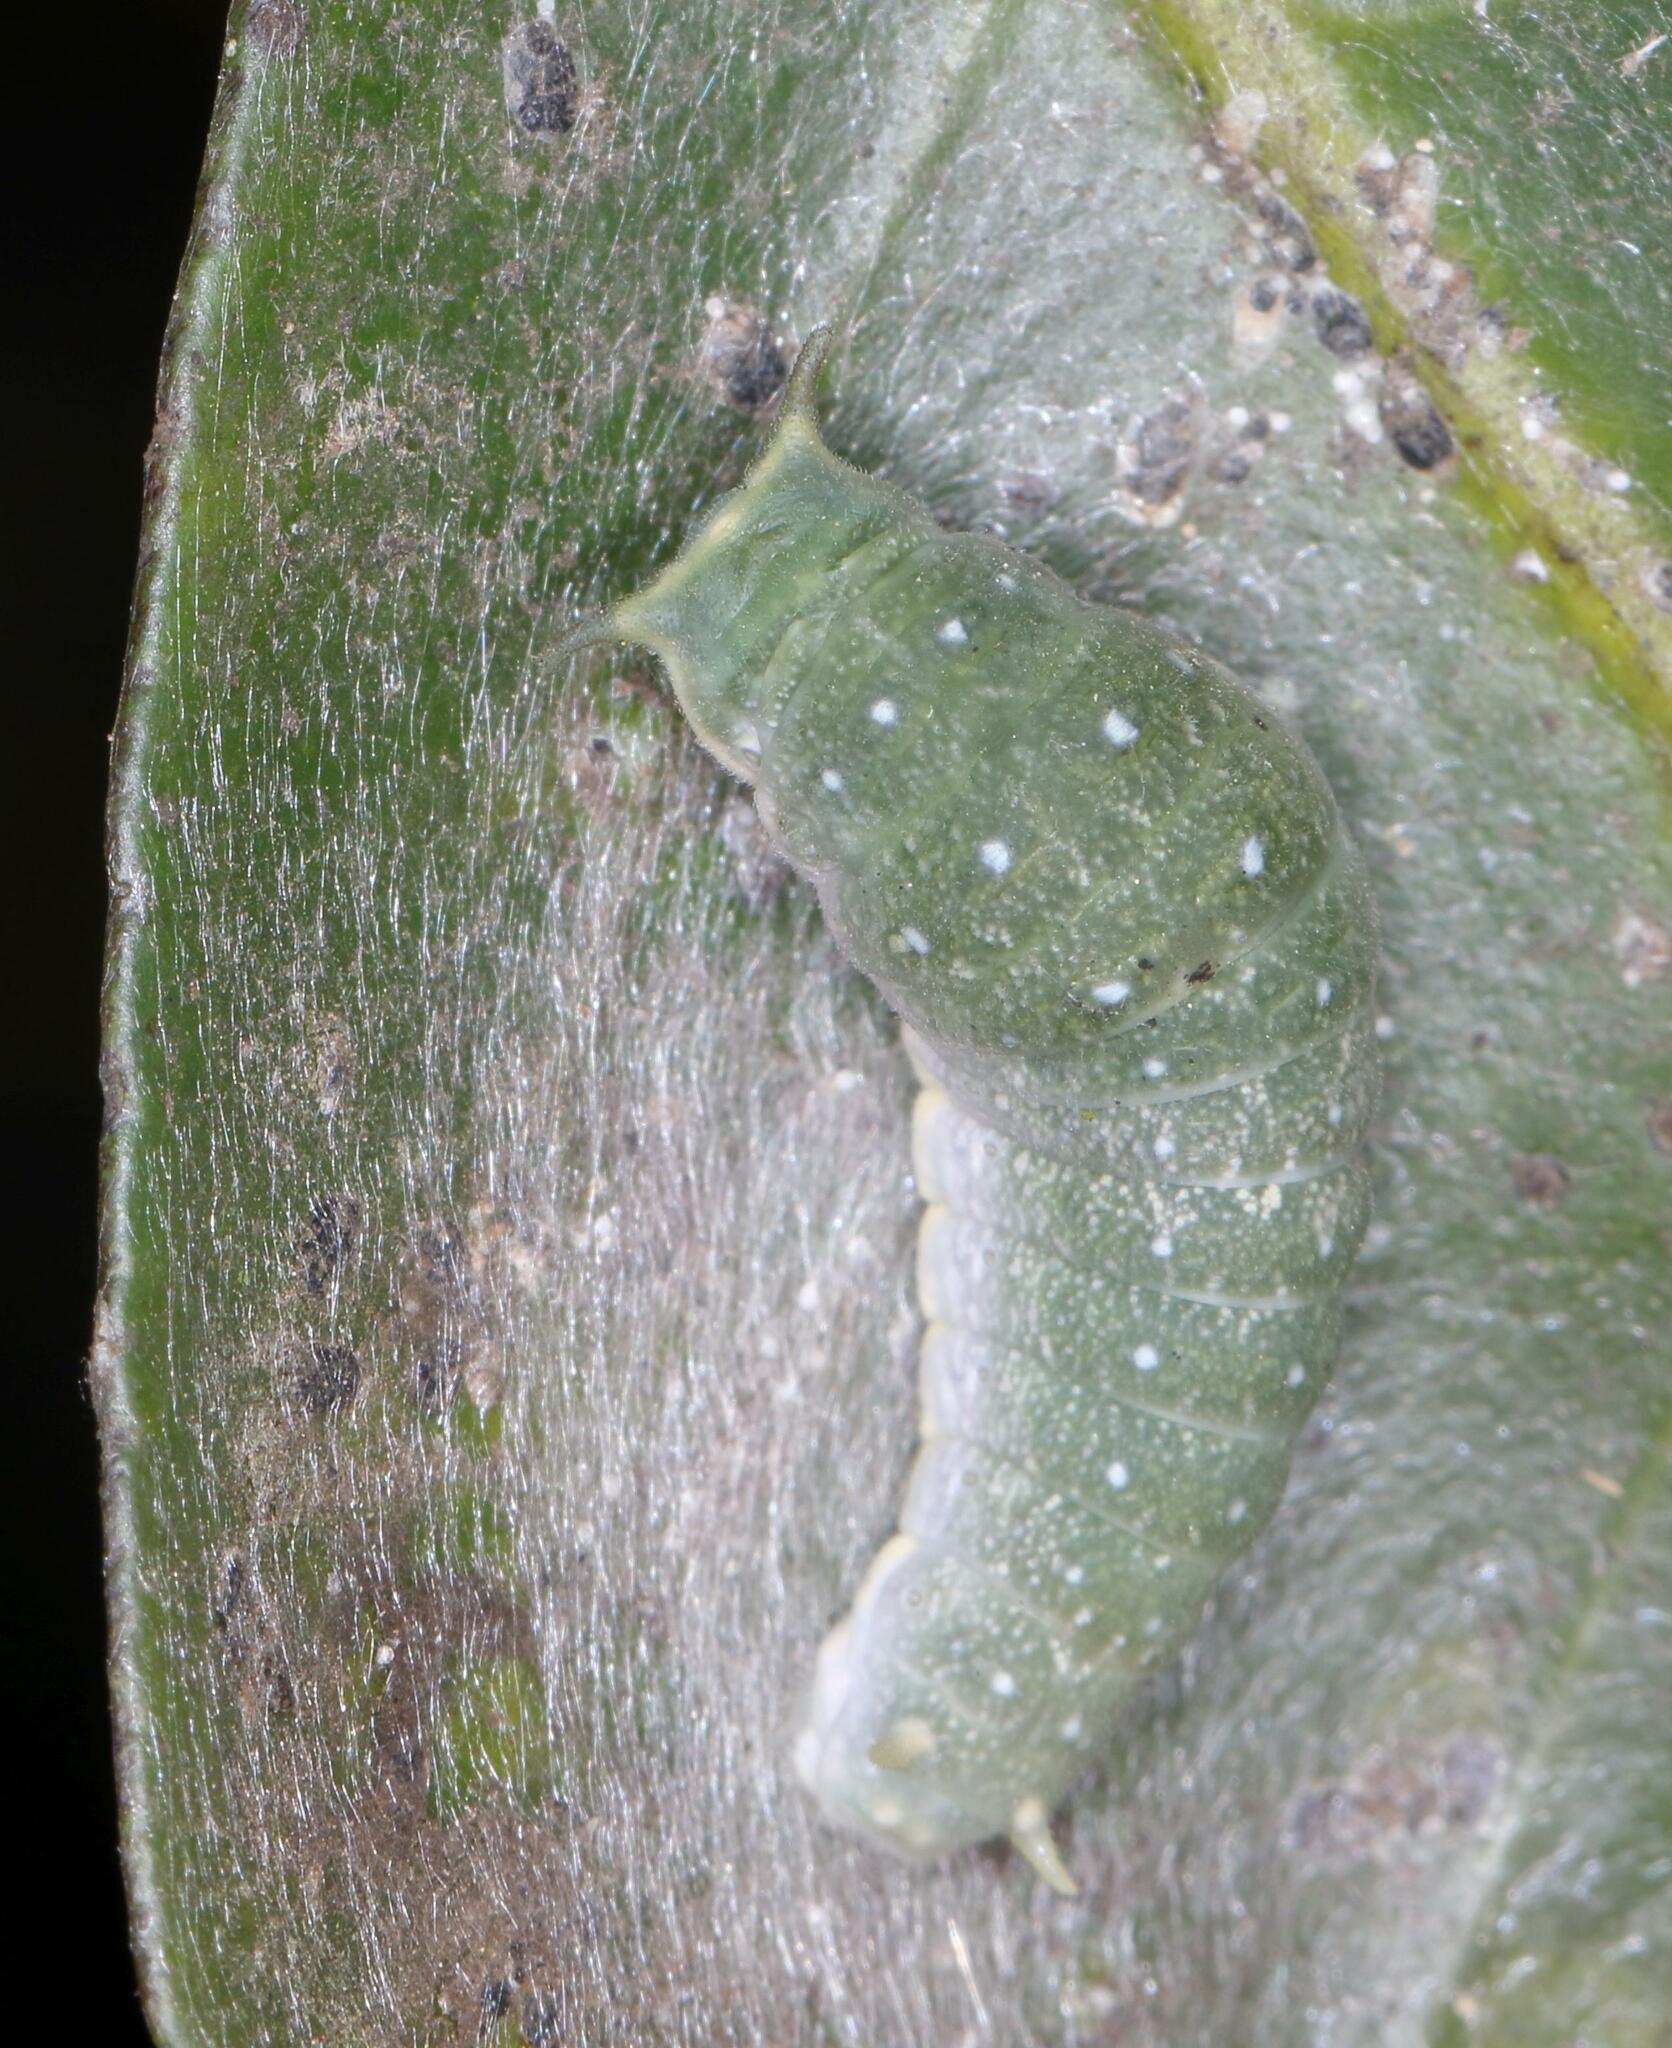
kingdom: Animalia
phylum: Arthropoda
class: Insecta
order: Lepidoptera
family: Papilionidae
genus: Papilio
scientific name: Papilio dardanus
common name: Flying handkerchief
